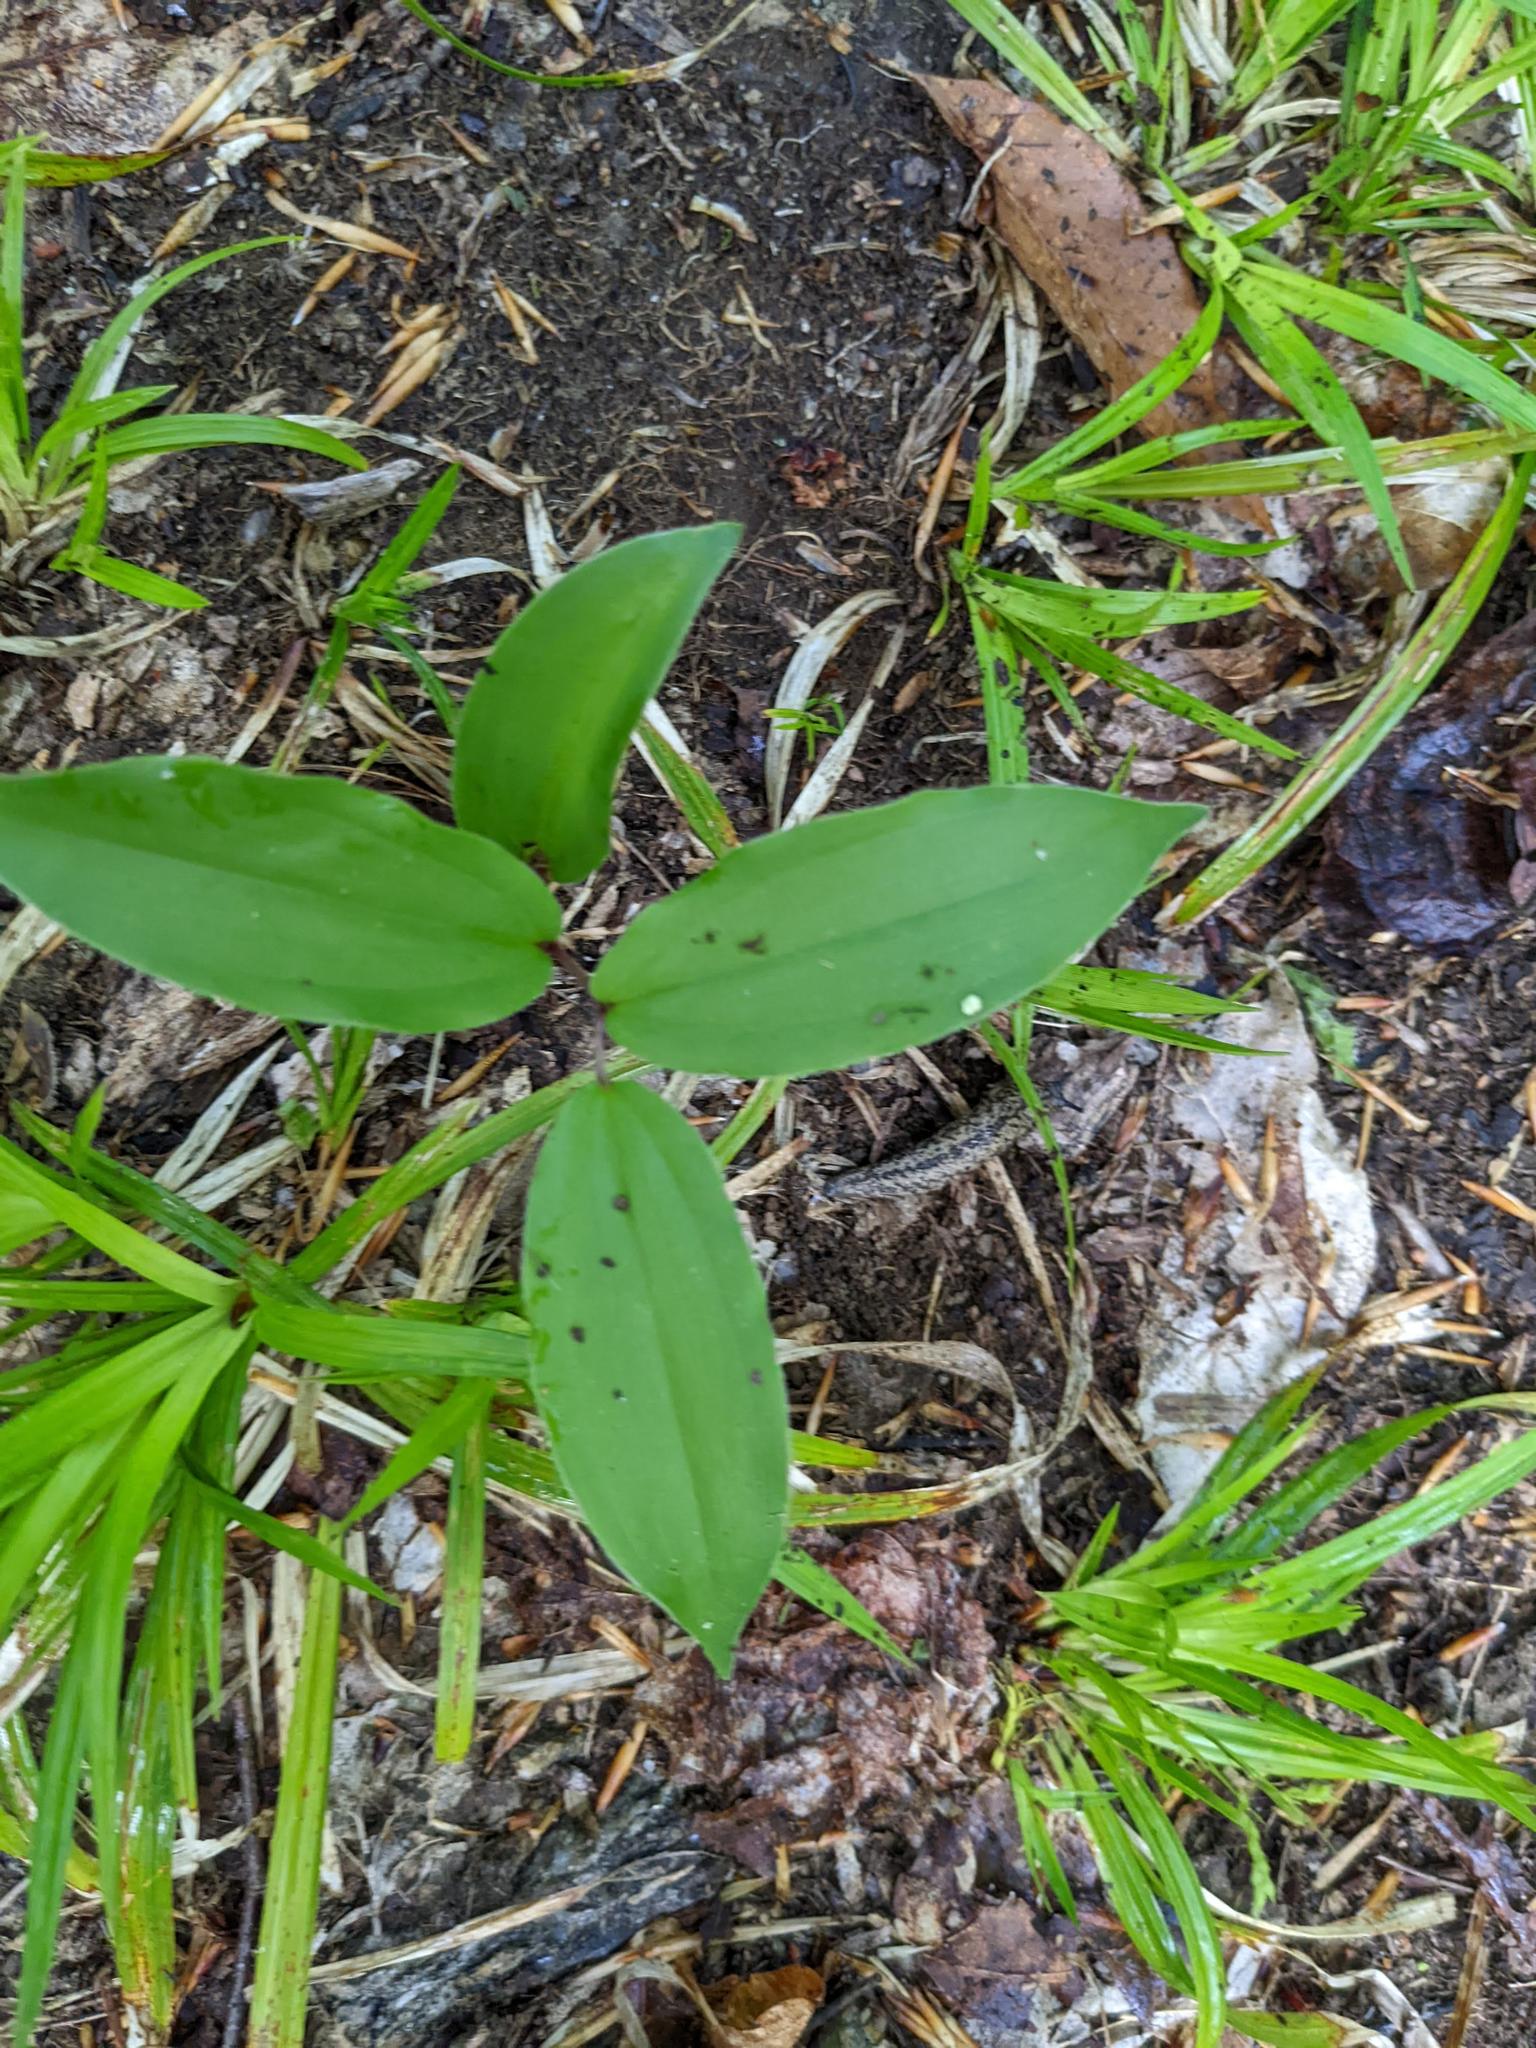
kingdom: Plantae
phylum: Tracheophyta
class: Liliopsida
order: Asparagales
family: Asparagaceae
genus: Maianthemum
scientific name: Maianthemum racemosum
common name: False spikenard
